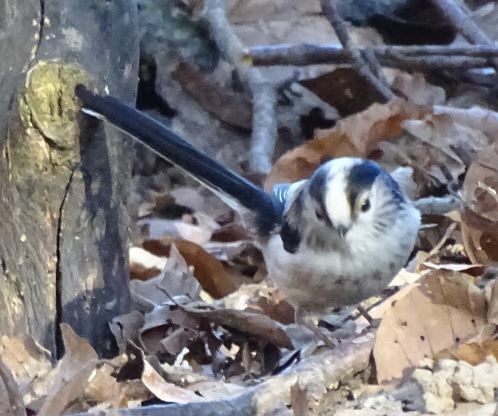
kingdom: Animalia
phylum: Chordata
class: Aves
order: Passeriformes
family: Aegithalidae
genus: Aegithalos
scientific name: Aegithalos caudatus
